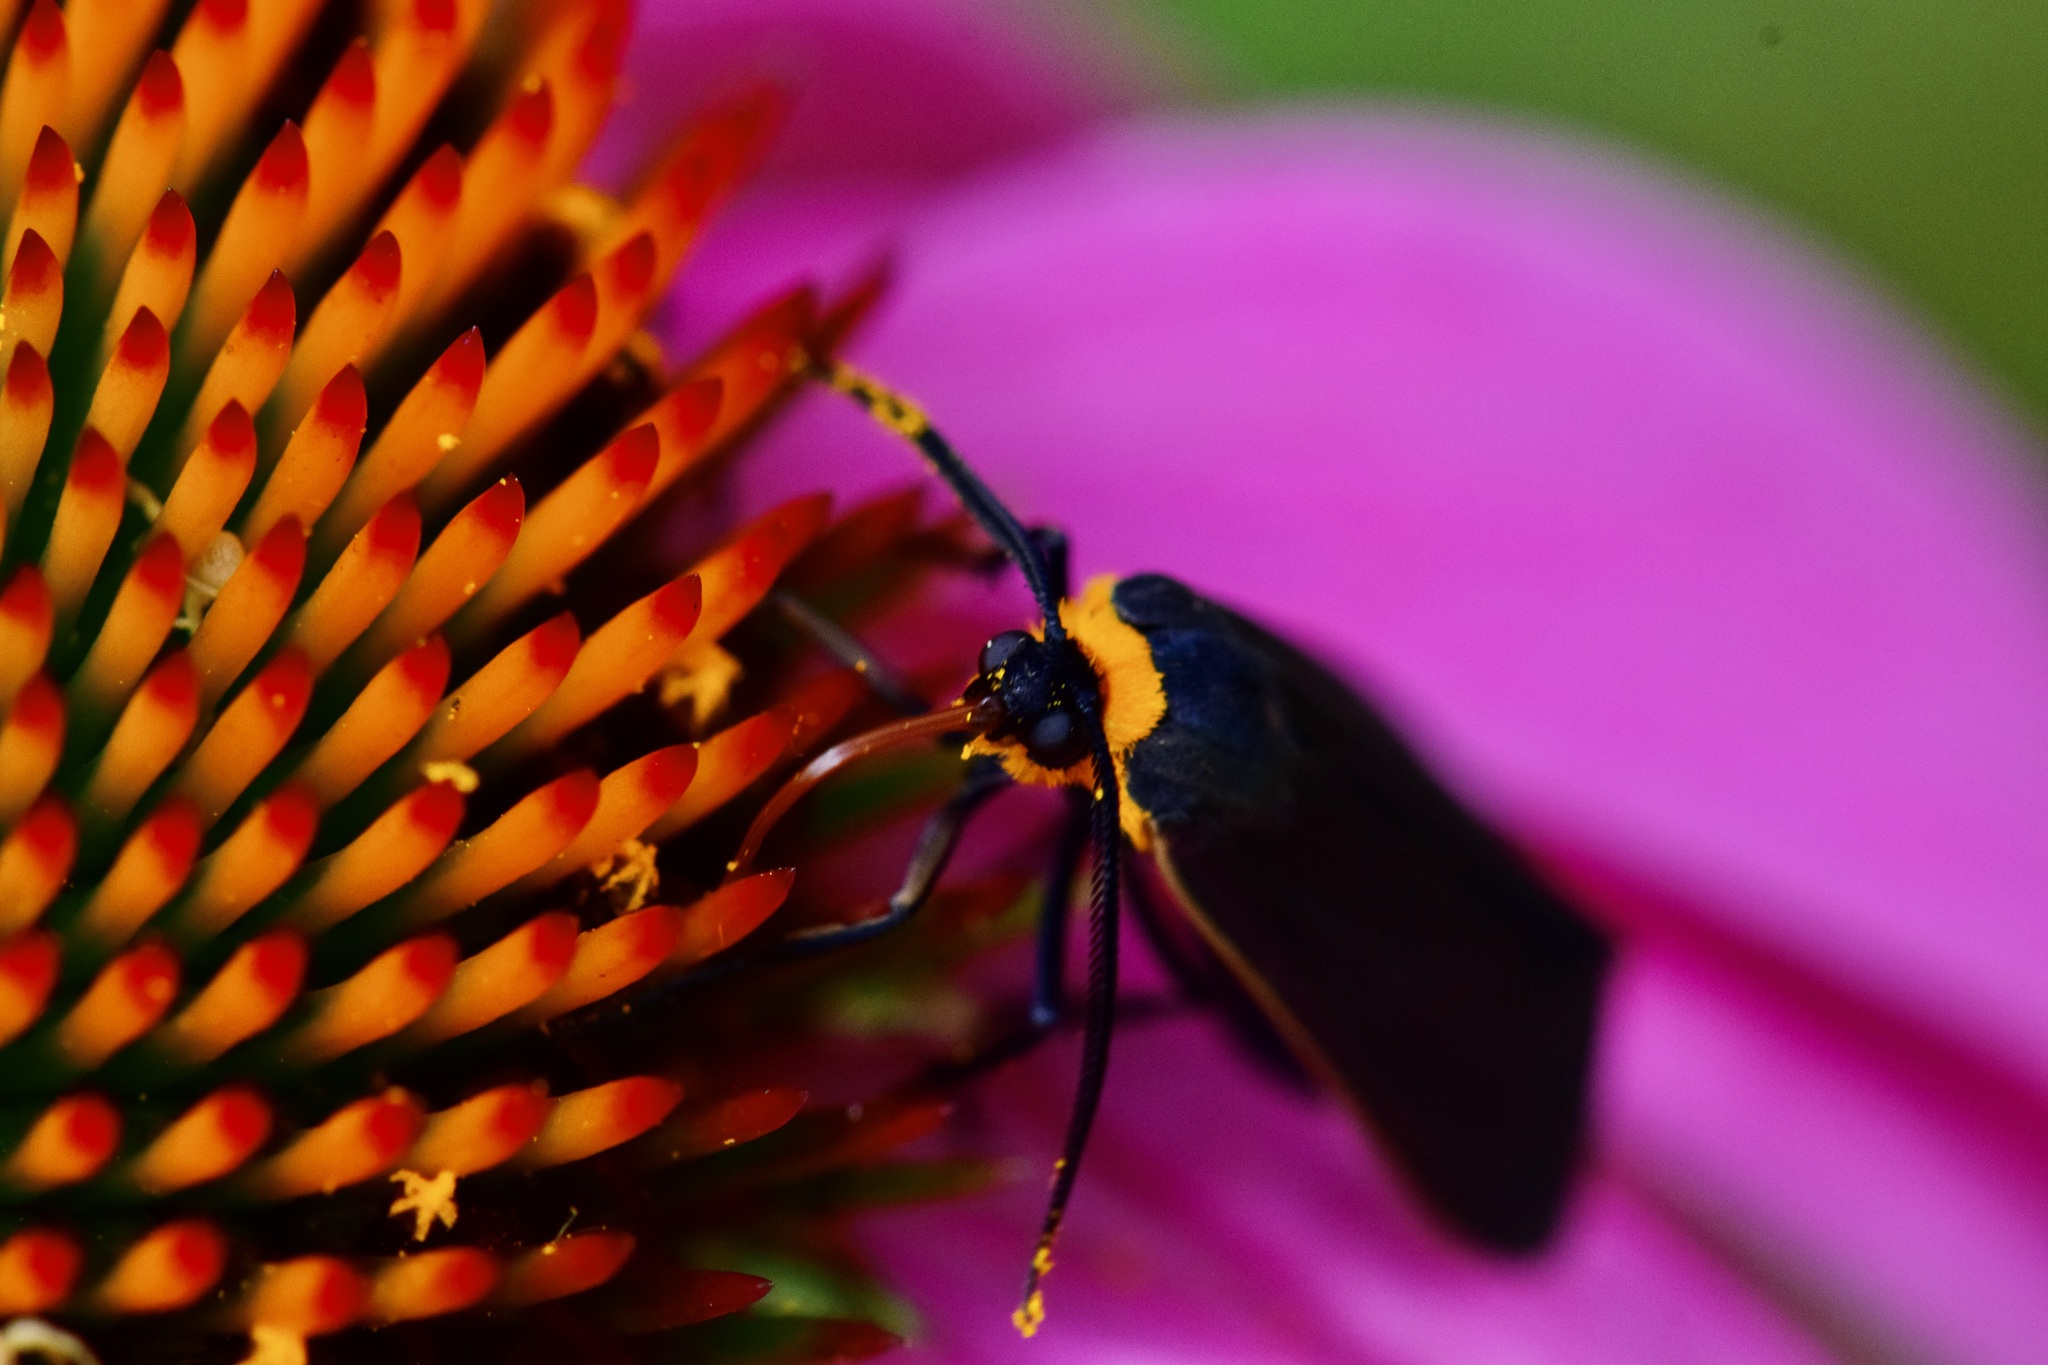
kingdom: Animalia
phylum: Arthropoda
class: Insecta
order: Lepidoptera
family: Erebidae
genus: Cisseps
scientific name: Cisseps fulvicollis
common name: Yellow-collared scape moth
